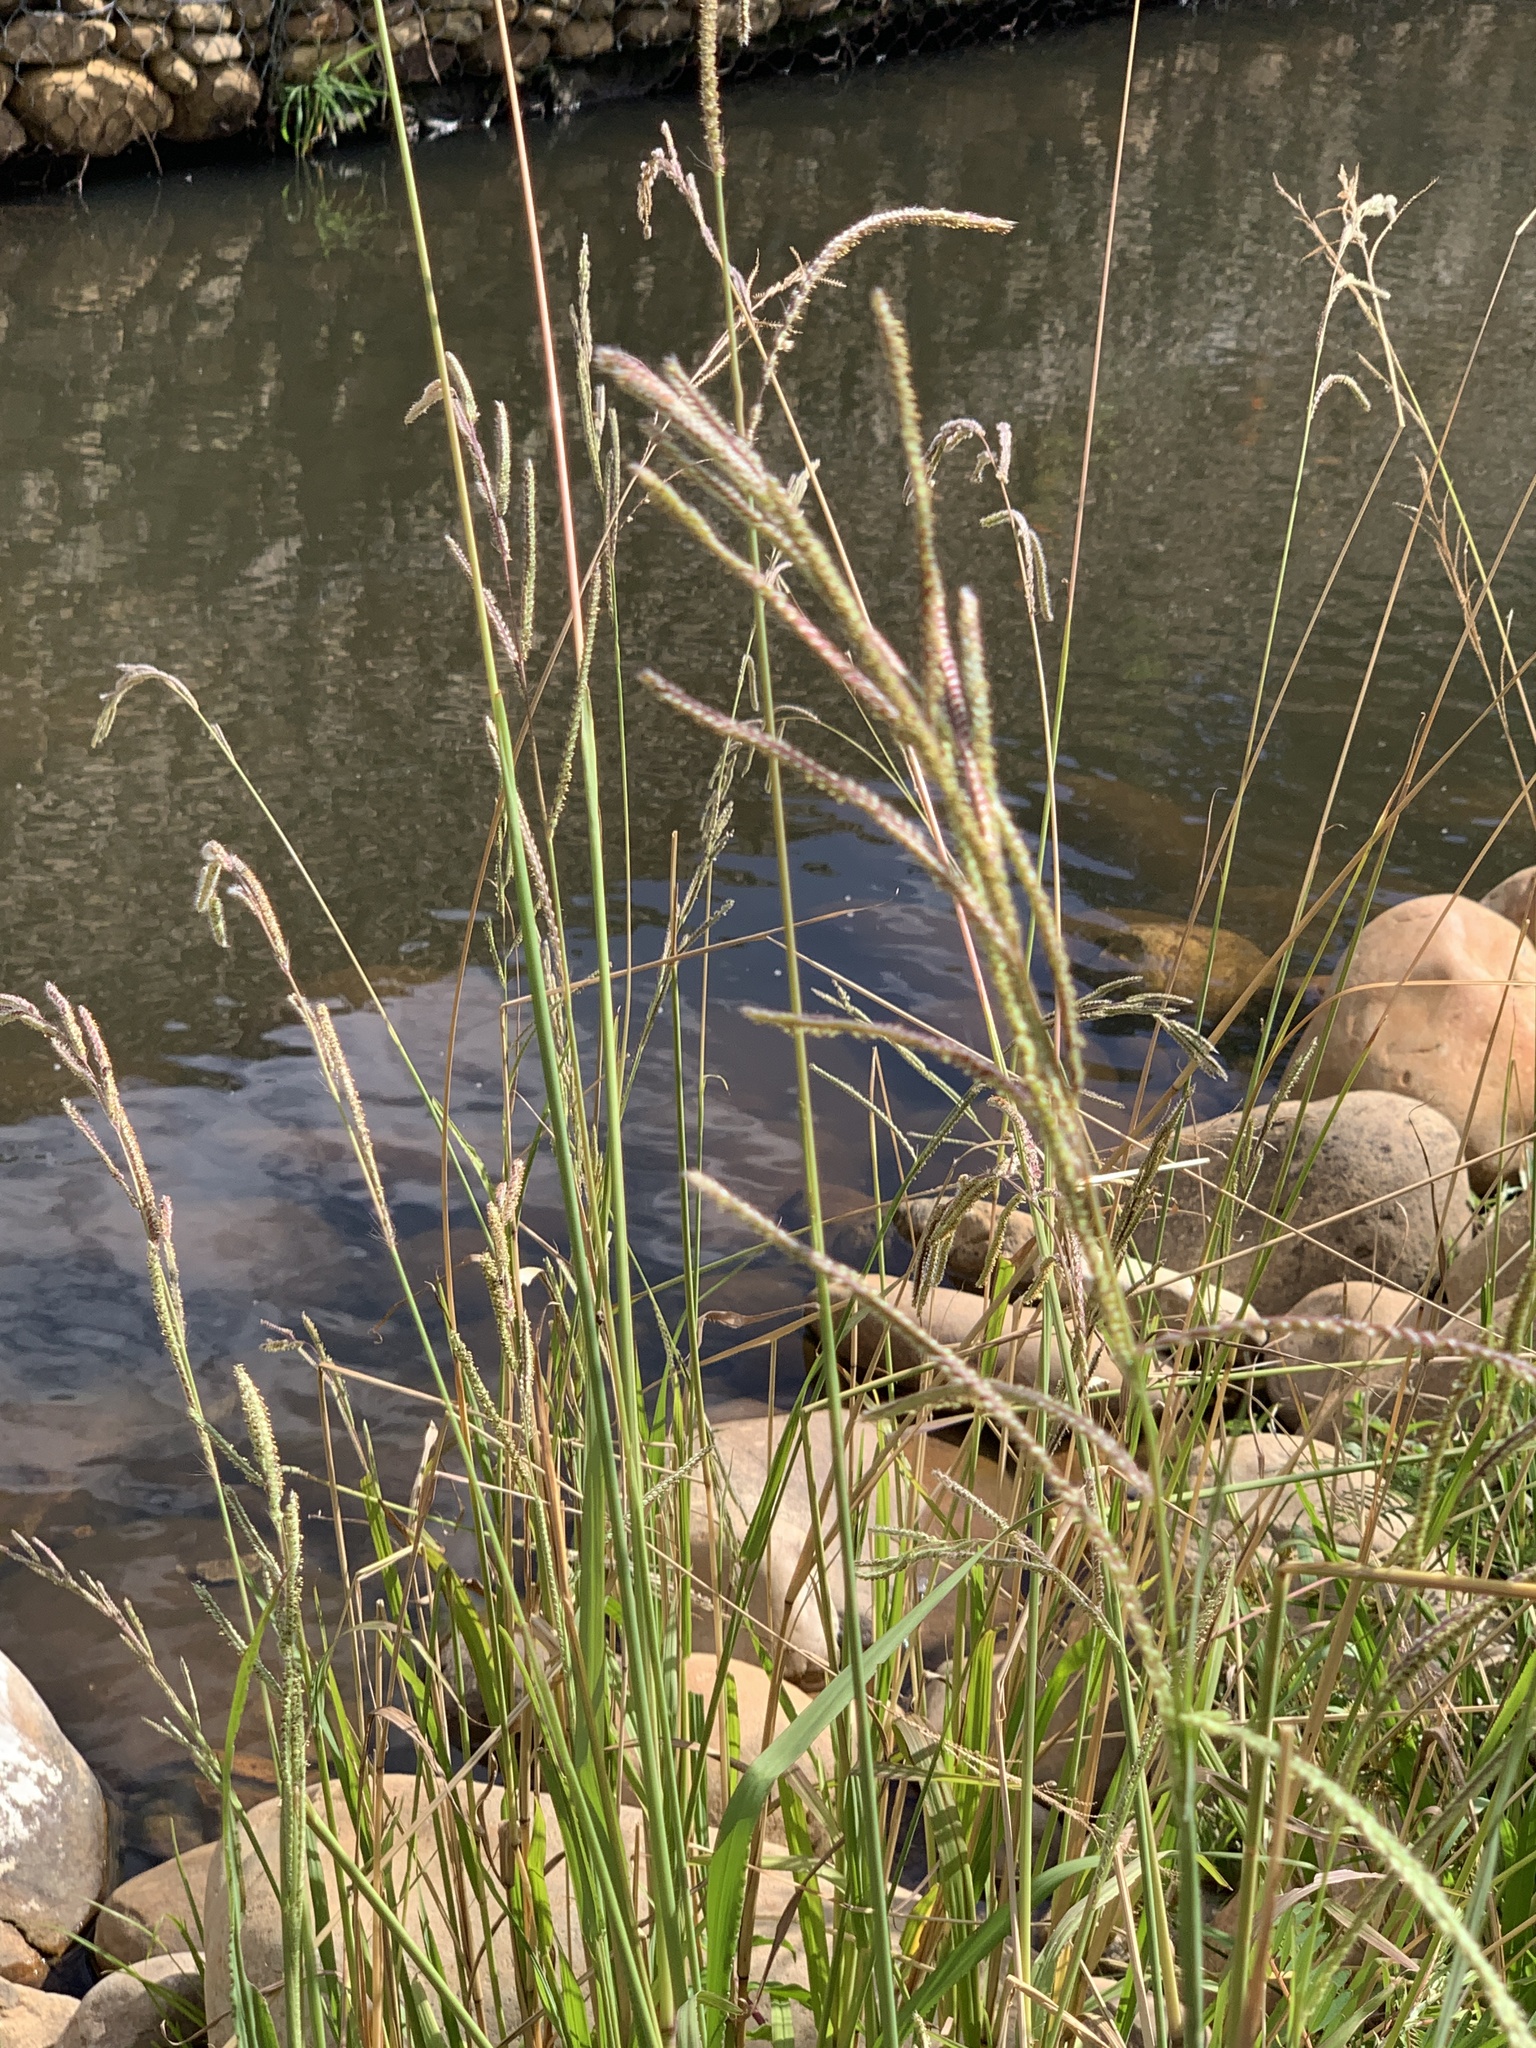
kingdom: Plantae
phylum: Tracheophyta
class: Liliopsida
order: Poales
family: Poaceae
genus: Paspalum
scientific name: Paspalum urvillei
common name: Vasey's grass
